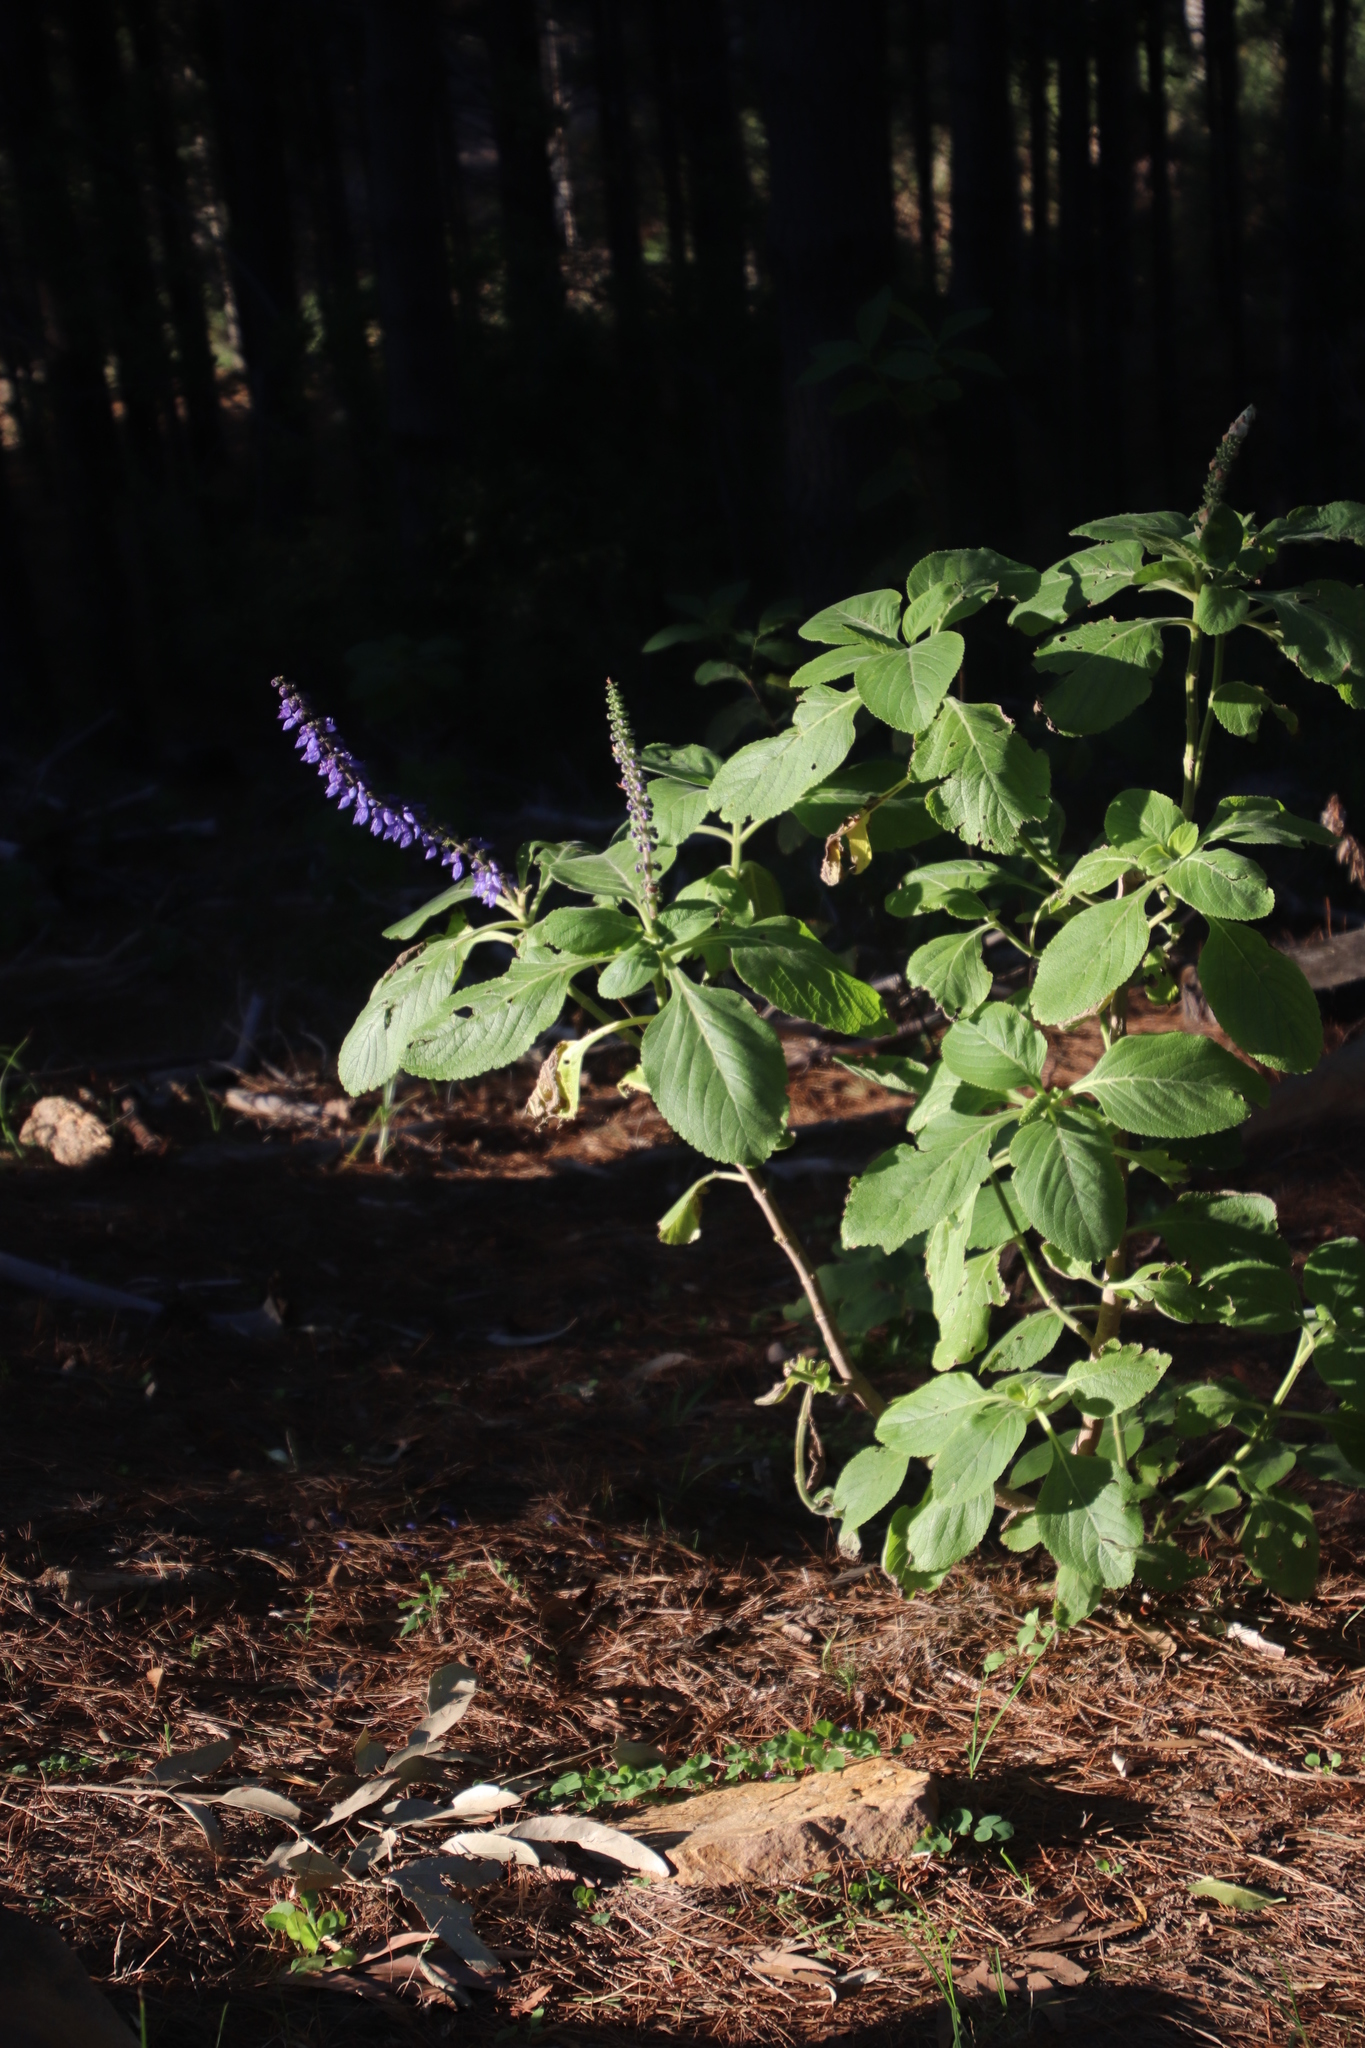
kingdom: Plantae
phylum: Tracheophyta
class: Magnoliopsida
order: Lamiales
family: Lamiaceae
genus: Coleus
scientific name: Coleus barbatus
